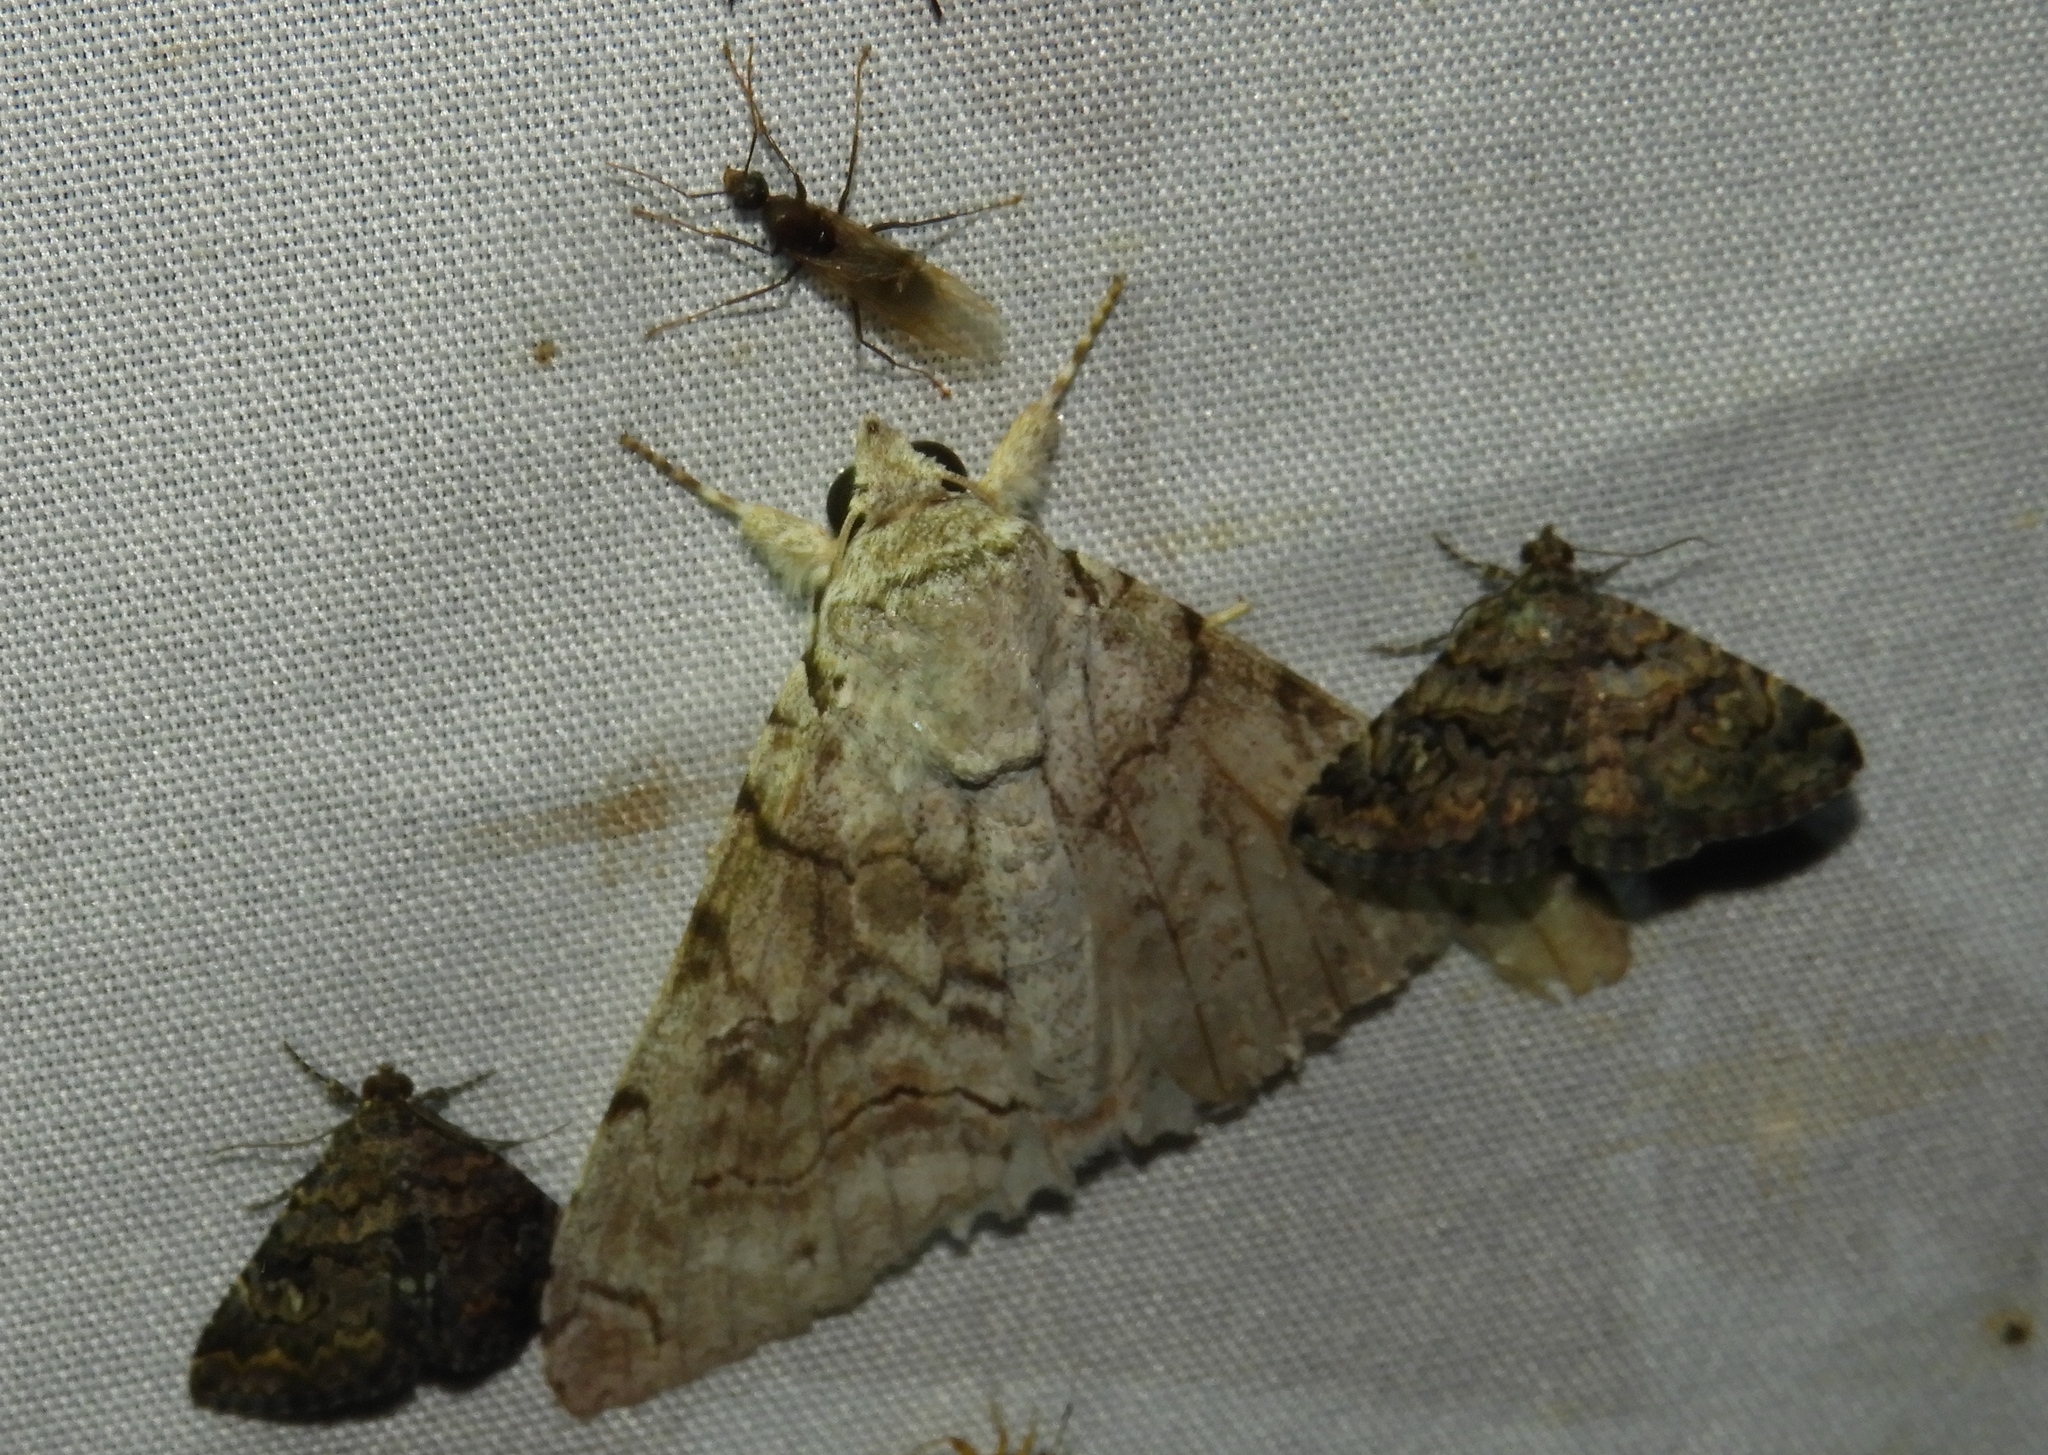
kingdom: Animalia
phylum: Arthropoda
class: Insecta
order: Lepidoptera
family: Erebidae
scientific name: Erebidae
